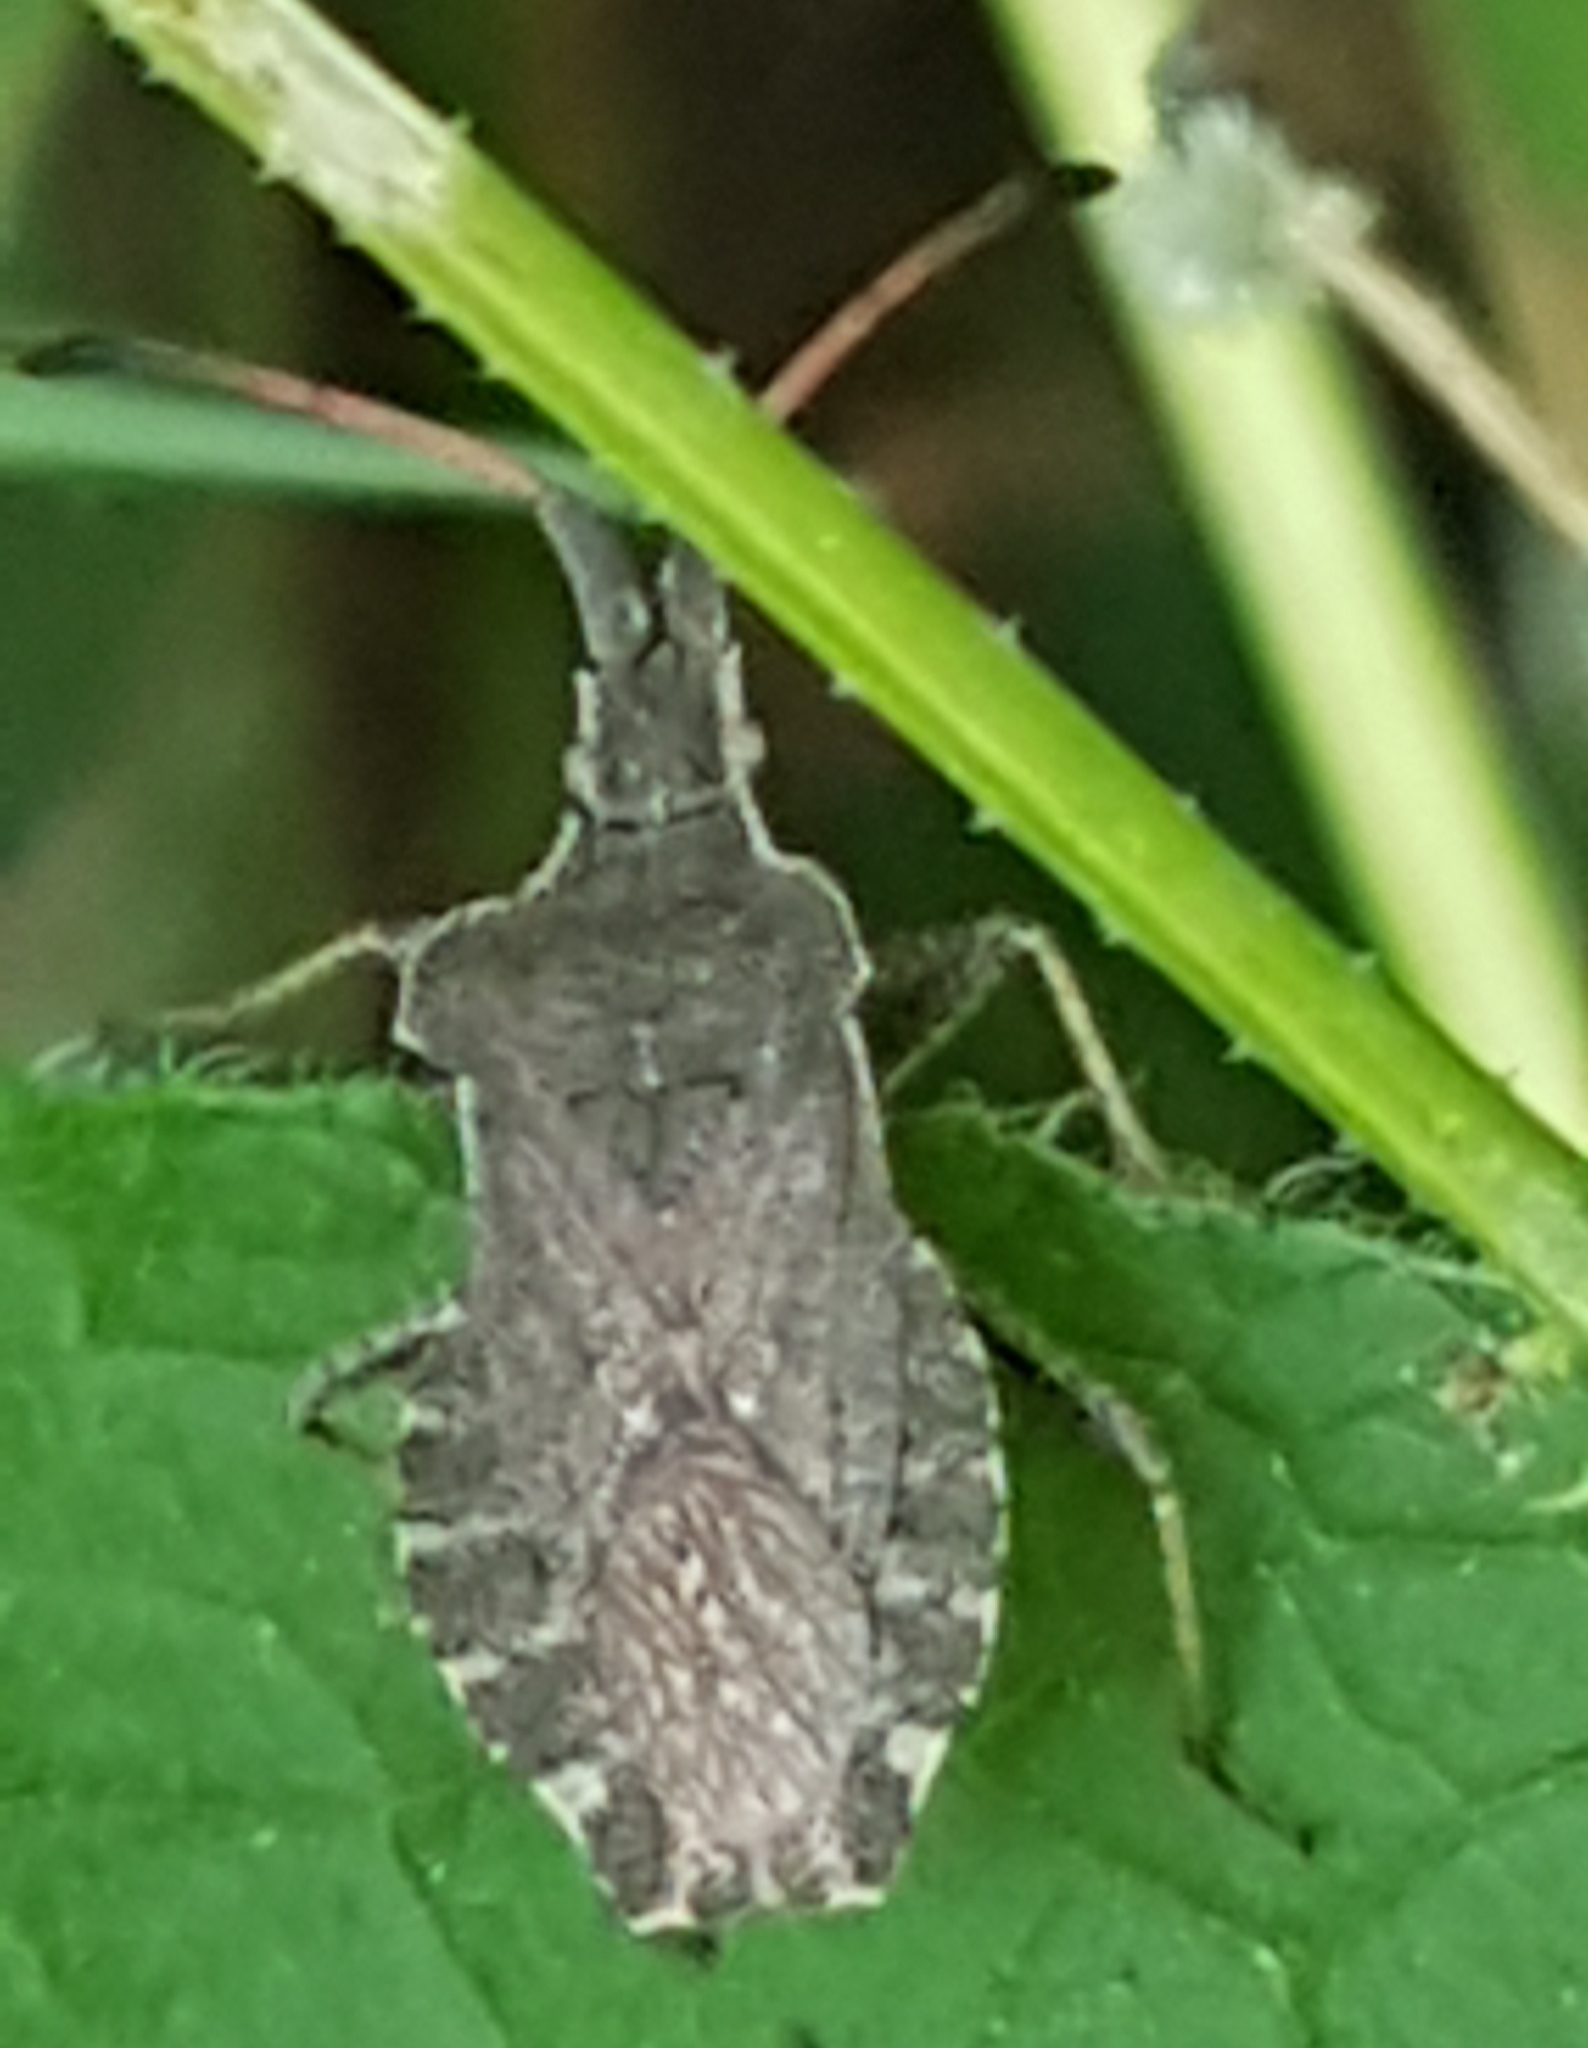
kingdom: Animalia
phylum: Arthropoda
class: Insecta
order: Hemiptera
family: Coreidae
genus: Enoplops
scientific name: Enoplops scapha
